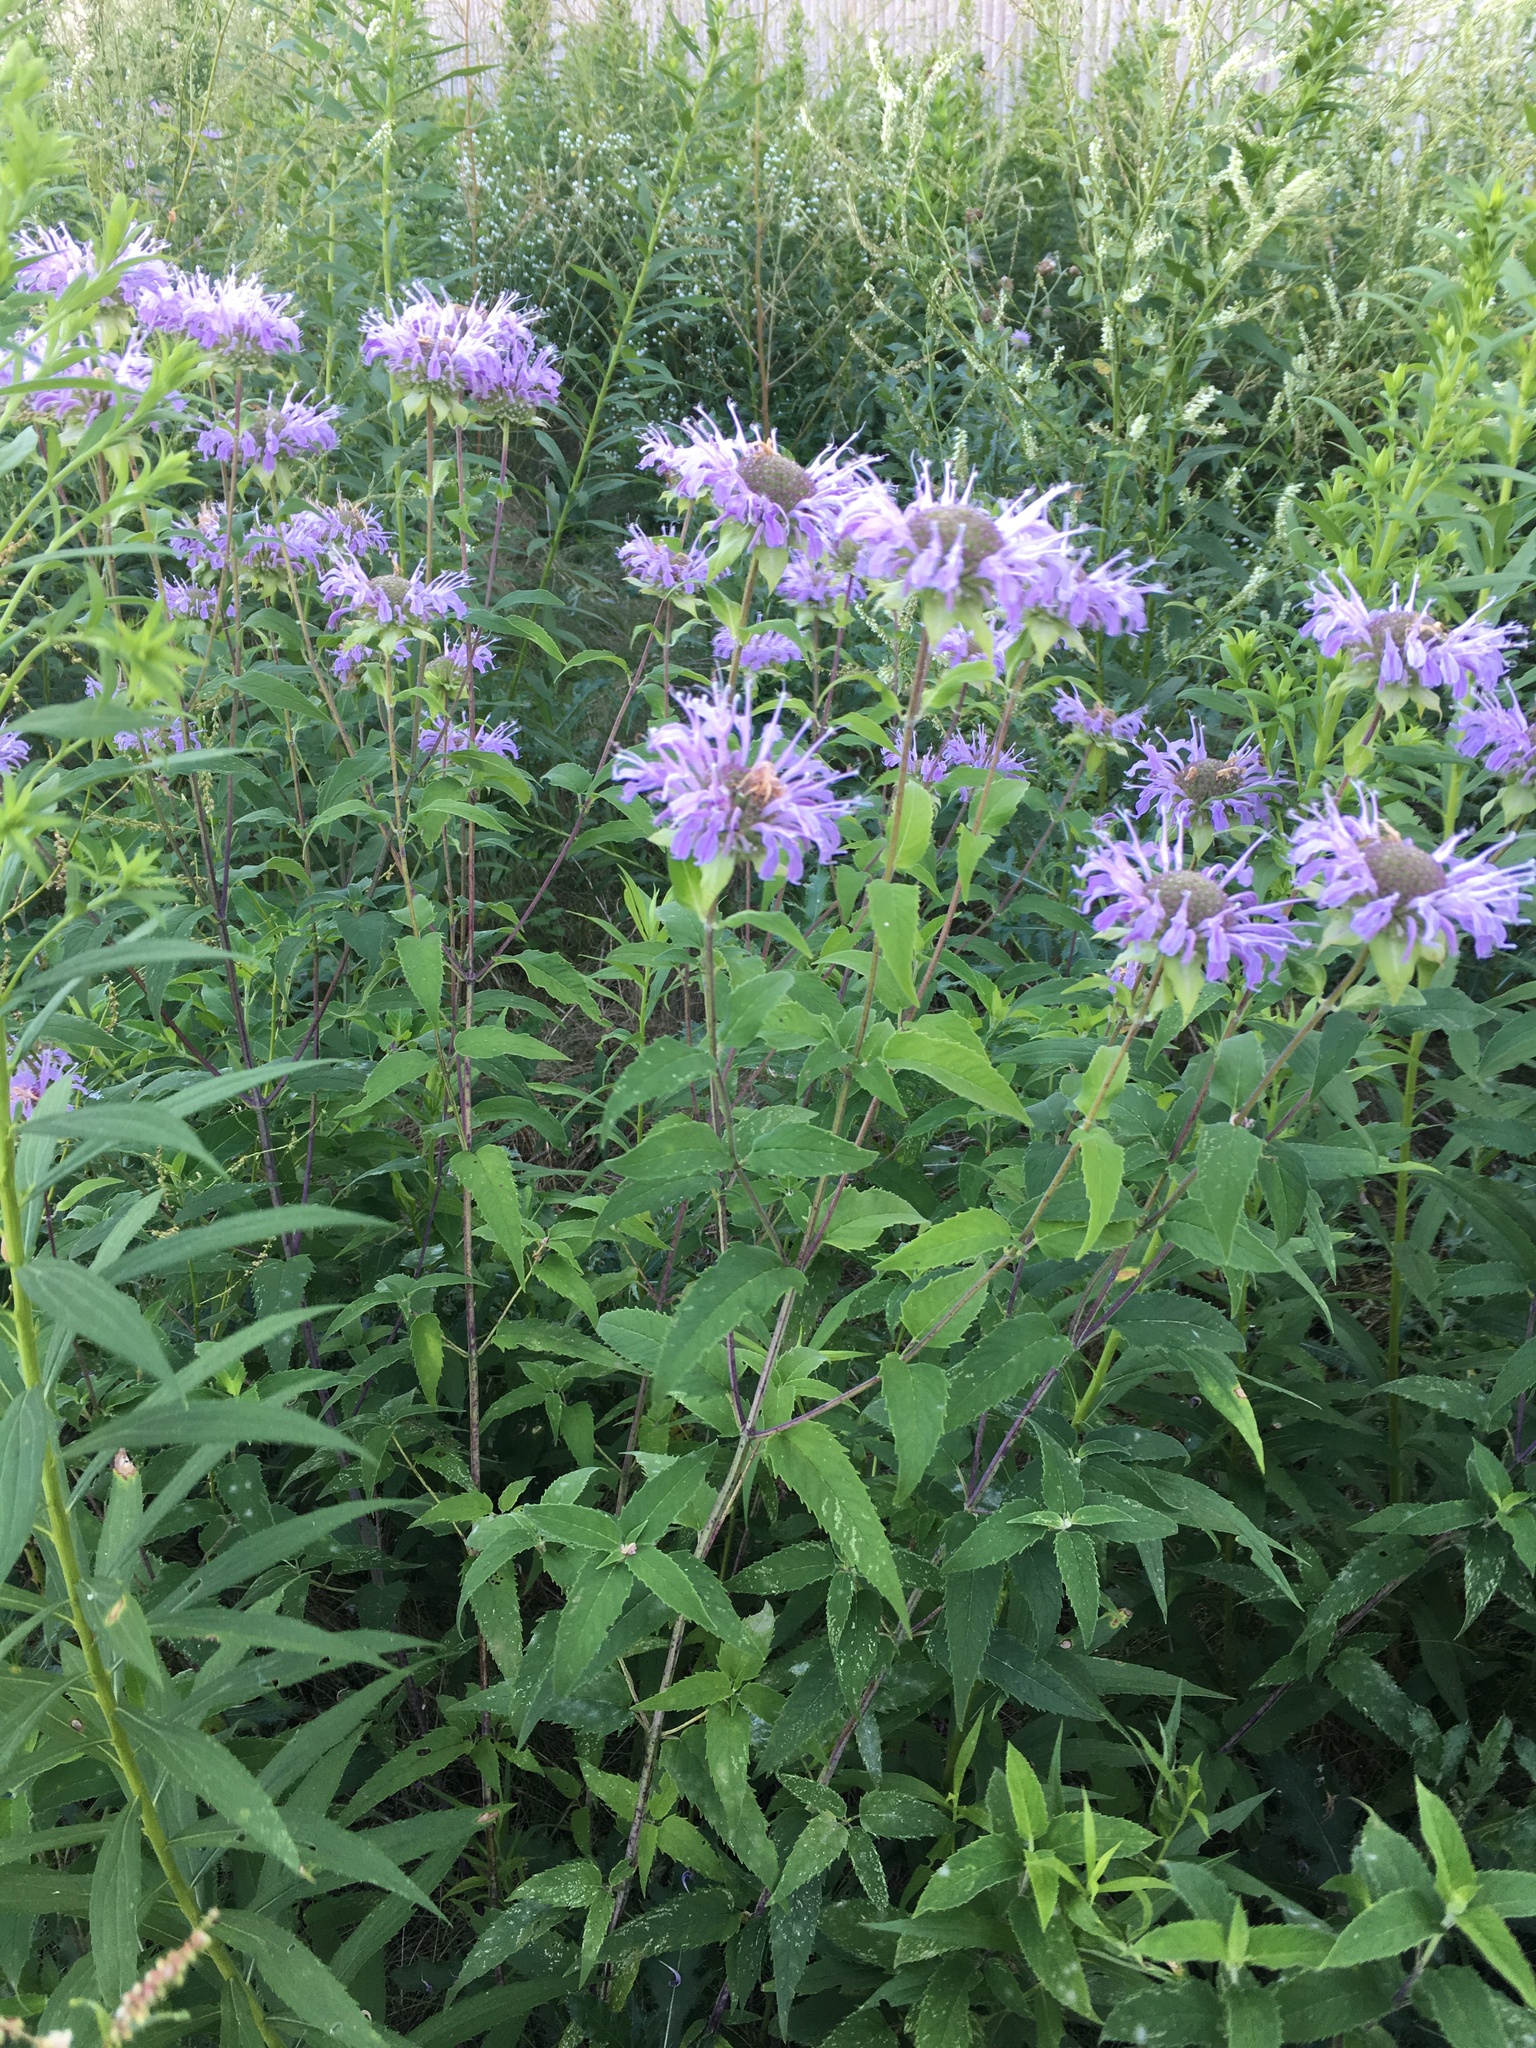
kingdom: Plantae
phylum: Tracheophyta
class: Magnoliopsida
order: Lamiales
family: Lamiaceae
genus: Monarda
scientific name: Monarda fistulosa
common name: Purple beebalm
